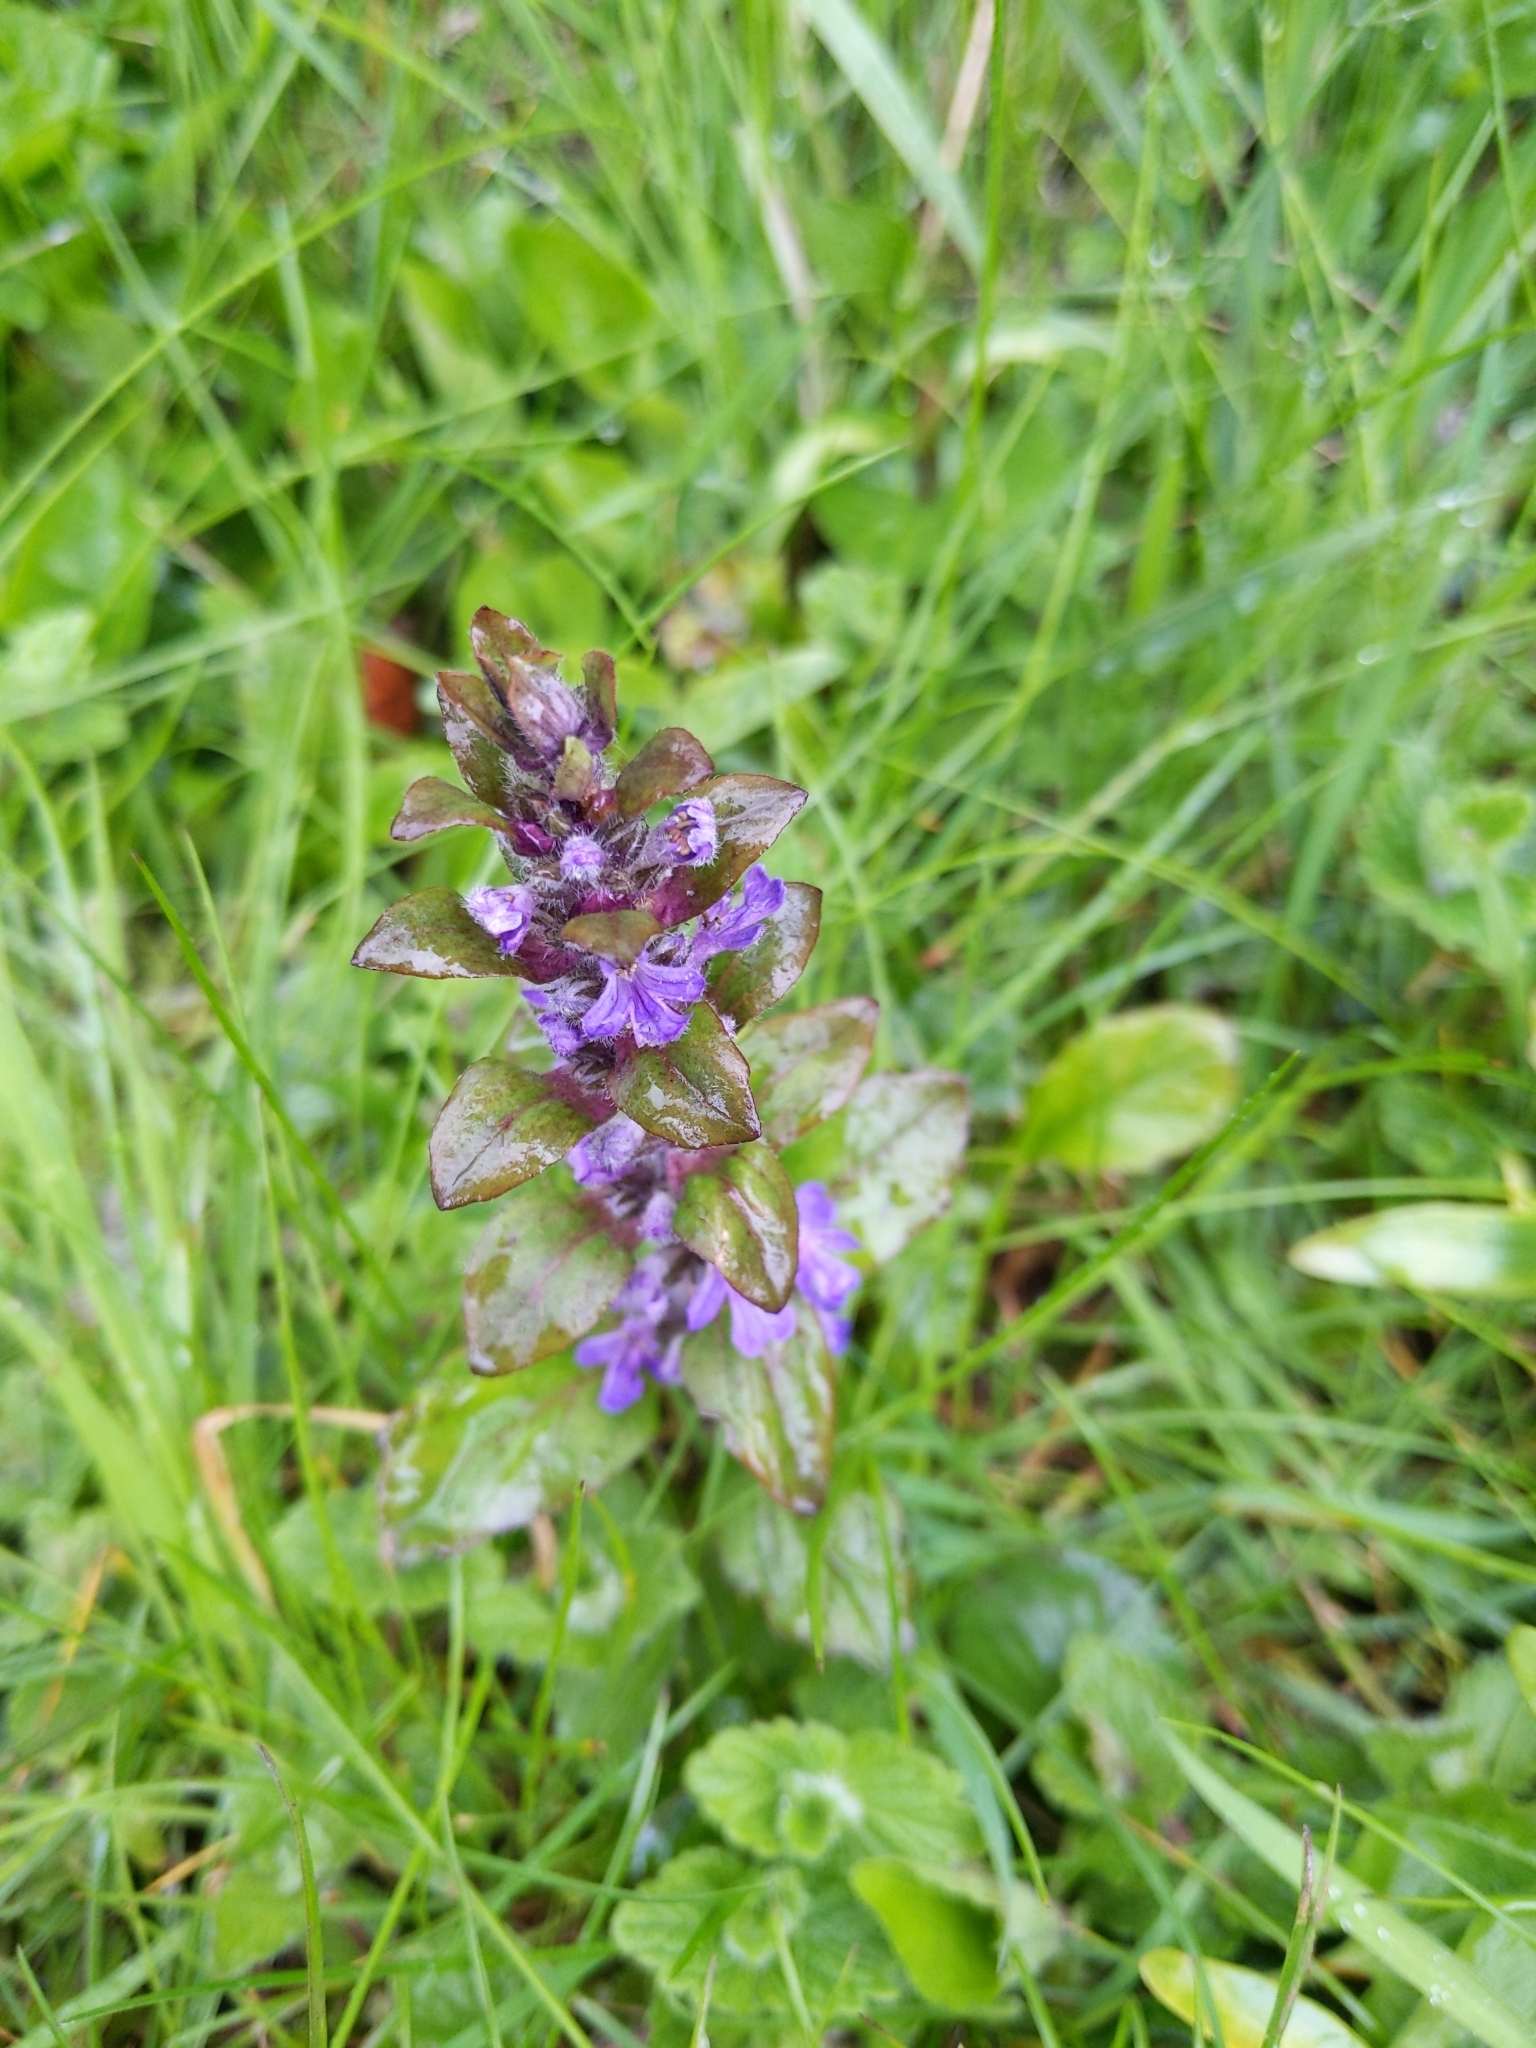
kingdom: Plantae
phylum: Tracheophyta
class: Magnoliopsida
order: Lamiales
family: Lamiaceae
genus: Ajuga
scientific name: Ajuga reptans
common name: Bugle
